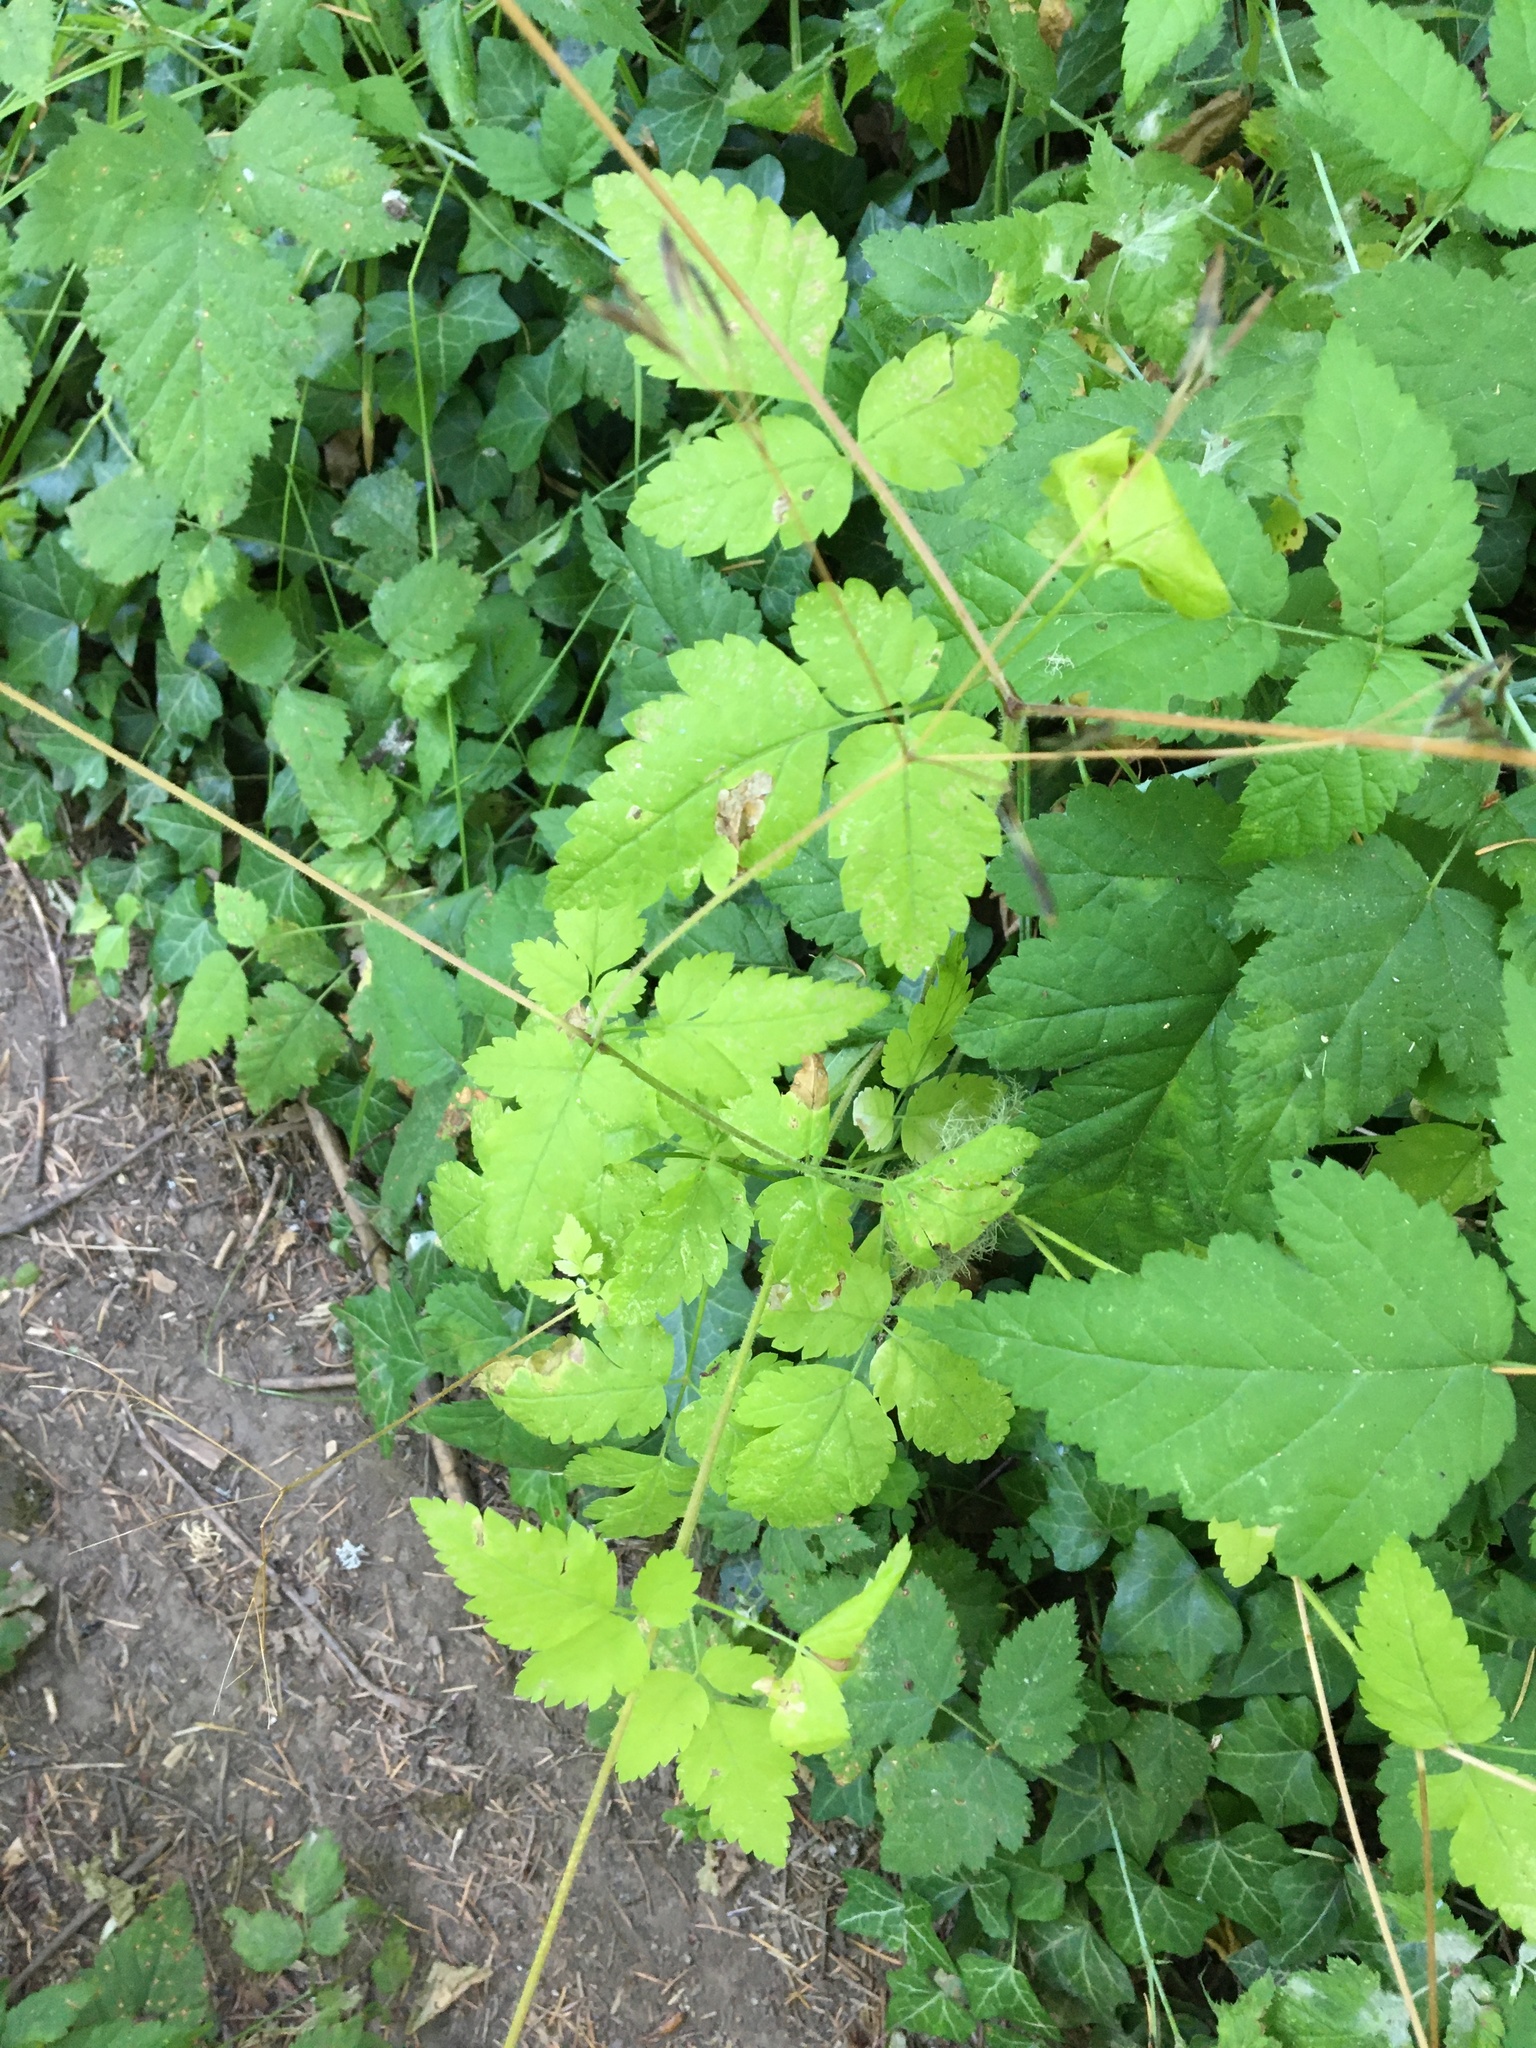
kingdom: Plantae
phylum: Tracheophyta
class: Magnoliopsida
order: Apiales
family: Apiaceae
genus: Osmorhiza
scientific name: Osmorhiza berteroi
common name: Mountain sweet cicely
